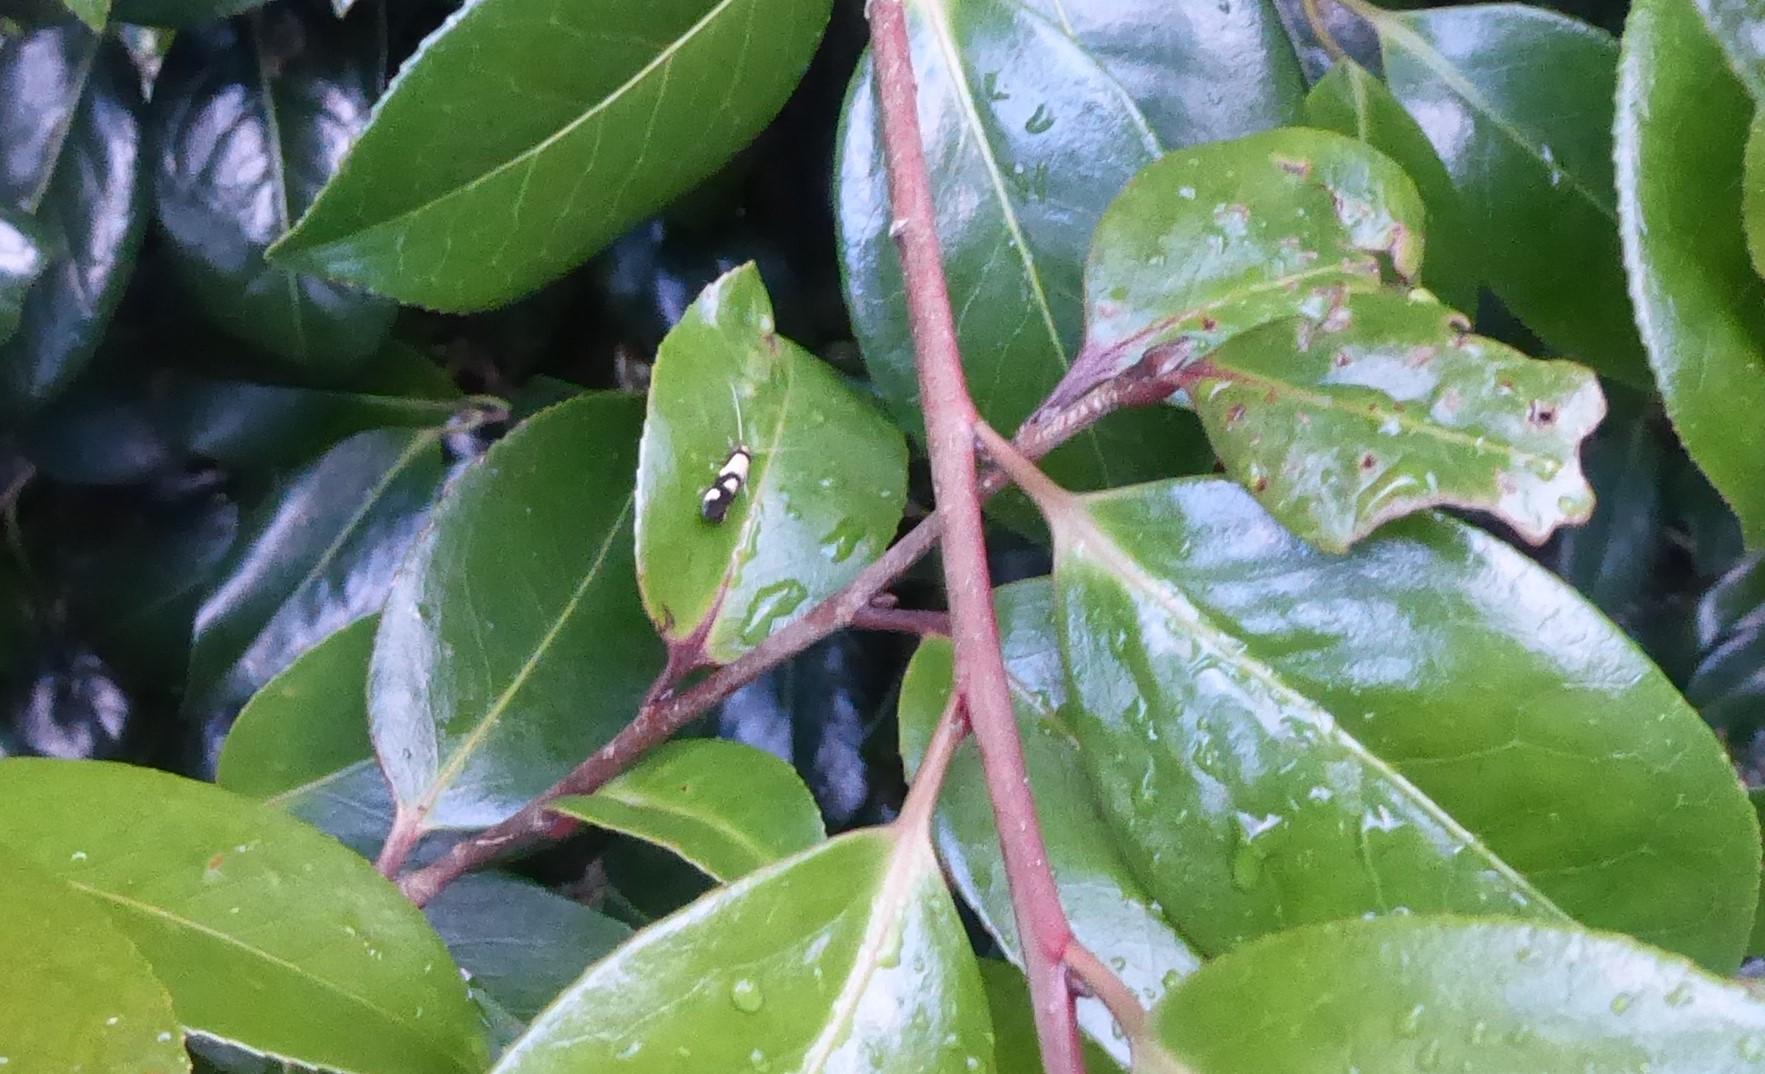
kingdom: Animalia
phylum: Arthropoda
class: Insecta
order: Lepidoptera
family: Tineidae
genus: Opogona
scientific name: Opogona comptella
